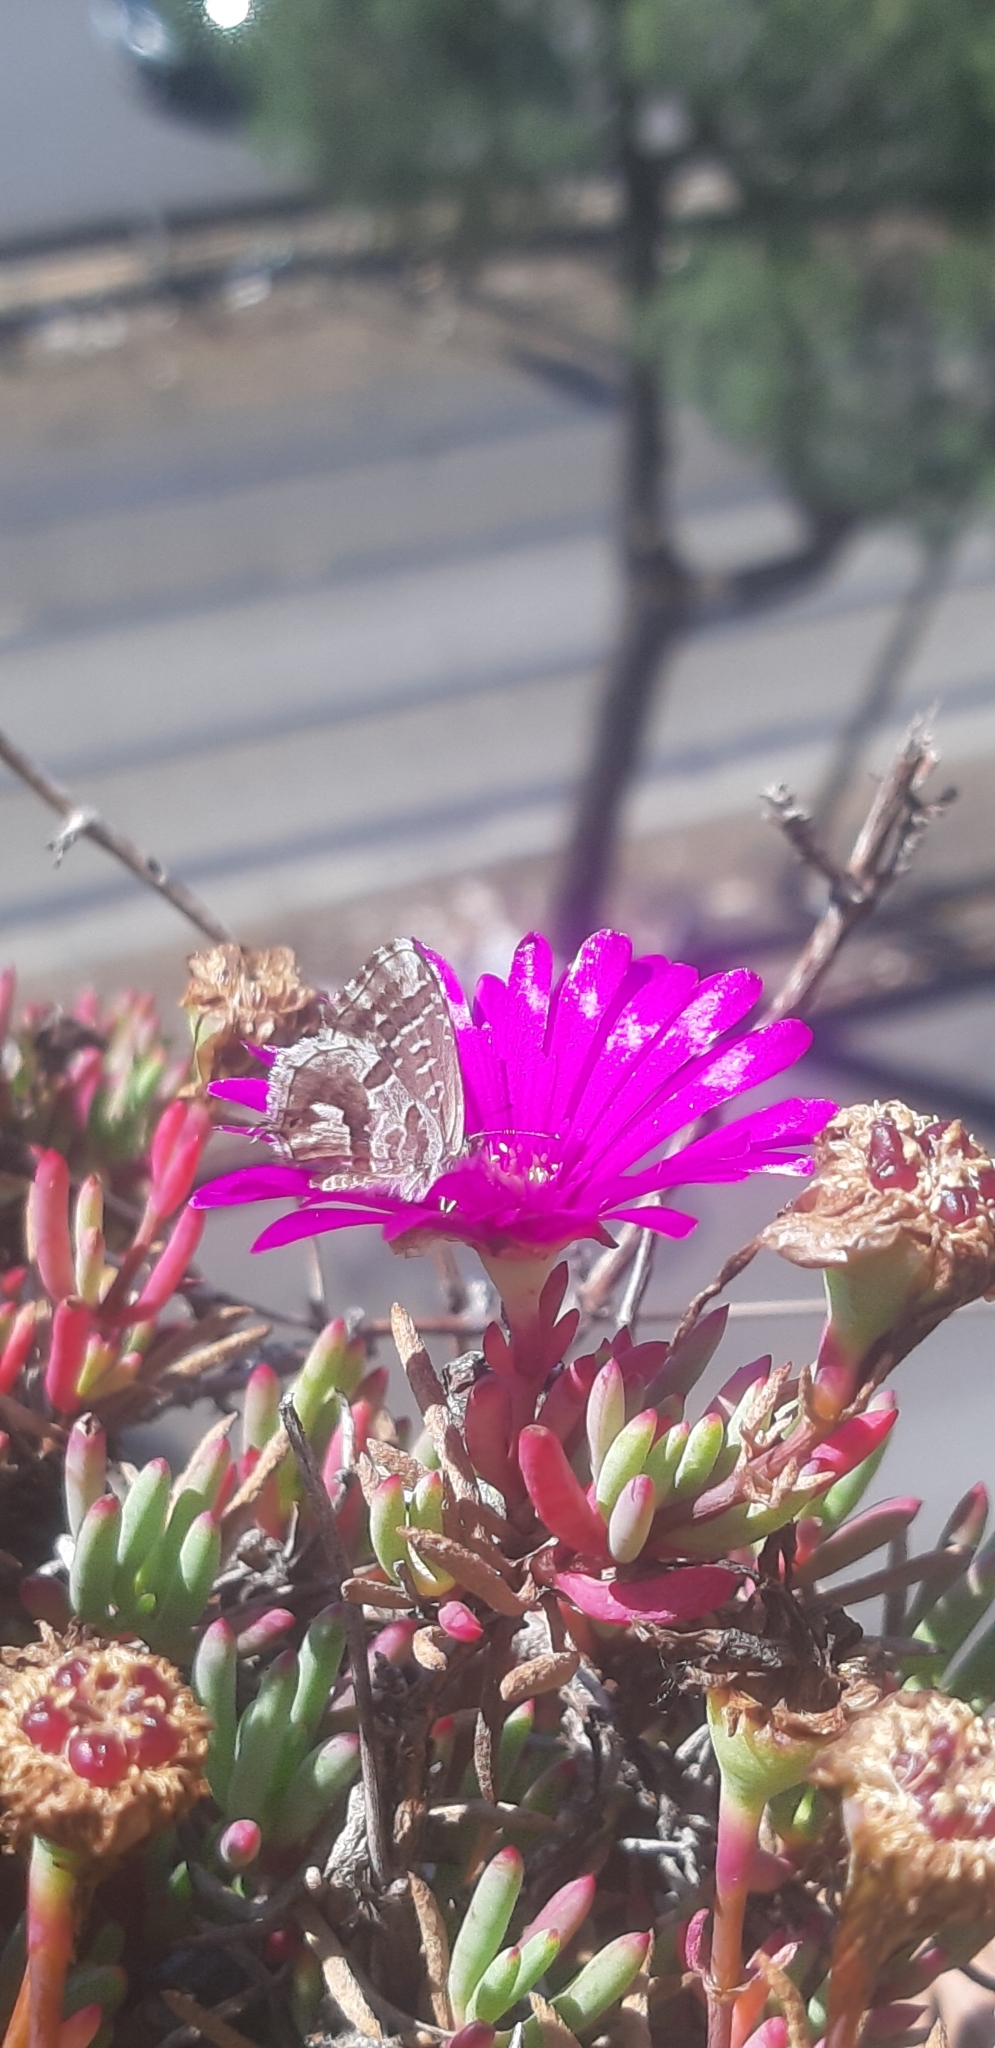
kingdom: Animalia
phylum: Arthropoda
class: Insecta
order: Lepidoptera
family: Lycaenidae
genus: Cacyreus
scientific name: Cacyreus marshalli
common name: Geranium bronze
